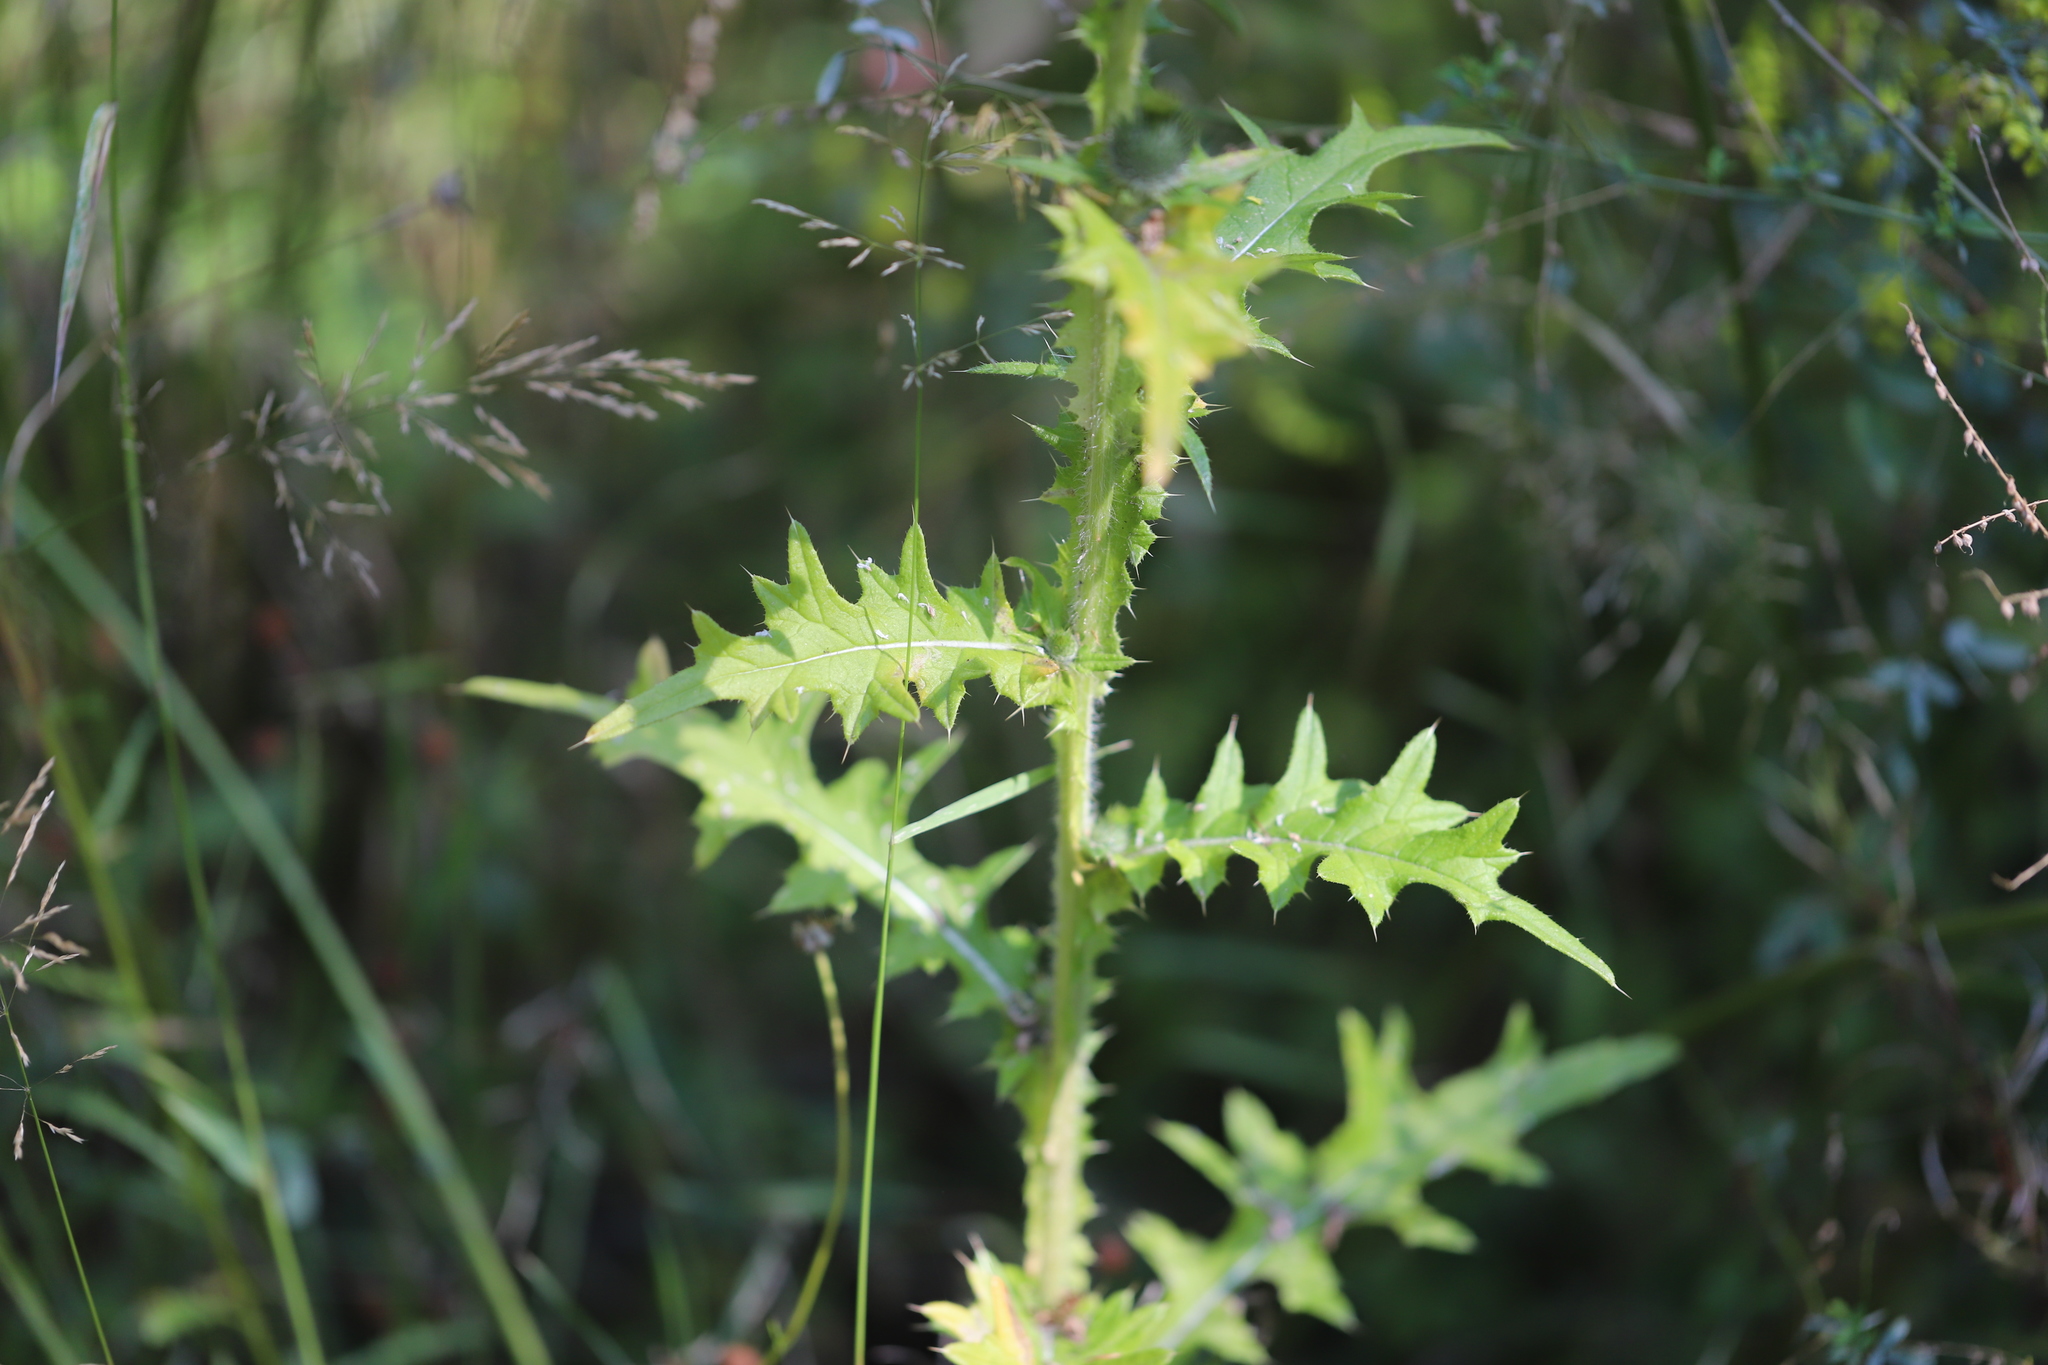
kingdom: Plantae
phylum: Tracheophyta
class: Magnoliopsida
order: Asterales
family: Asteraceae
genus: Cirsium
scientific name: Cirsium vulgare
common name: Bull thistle
